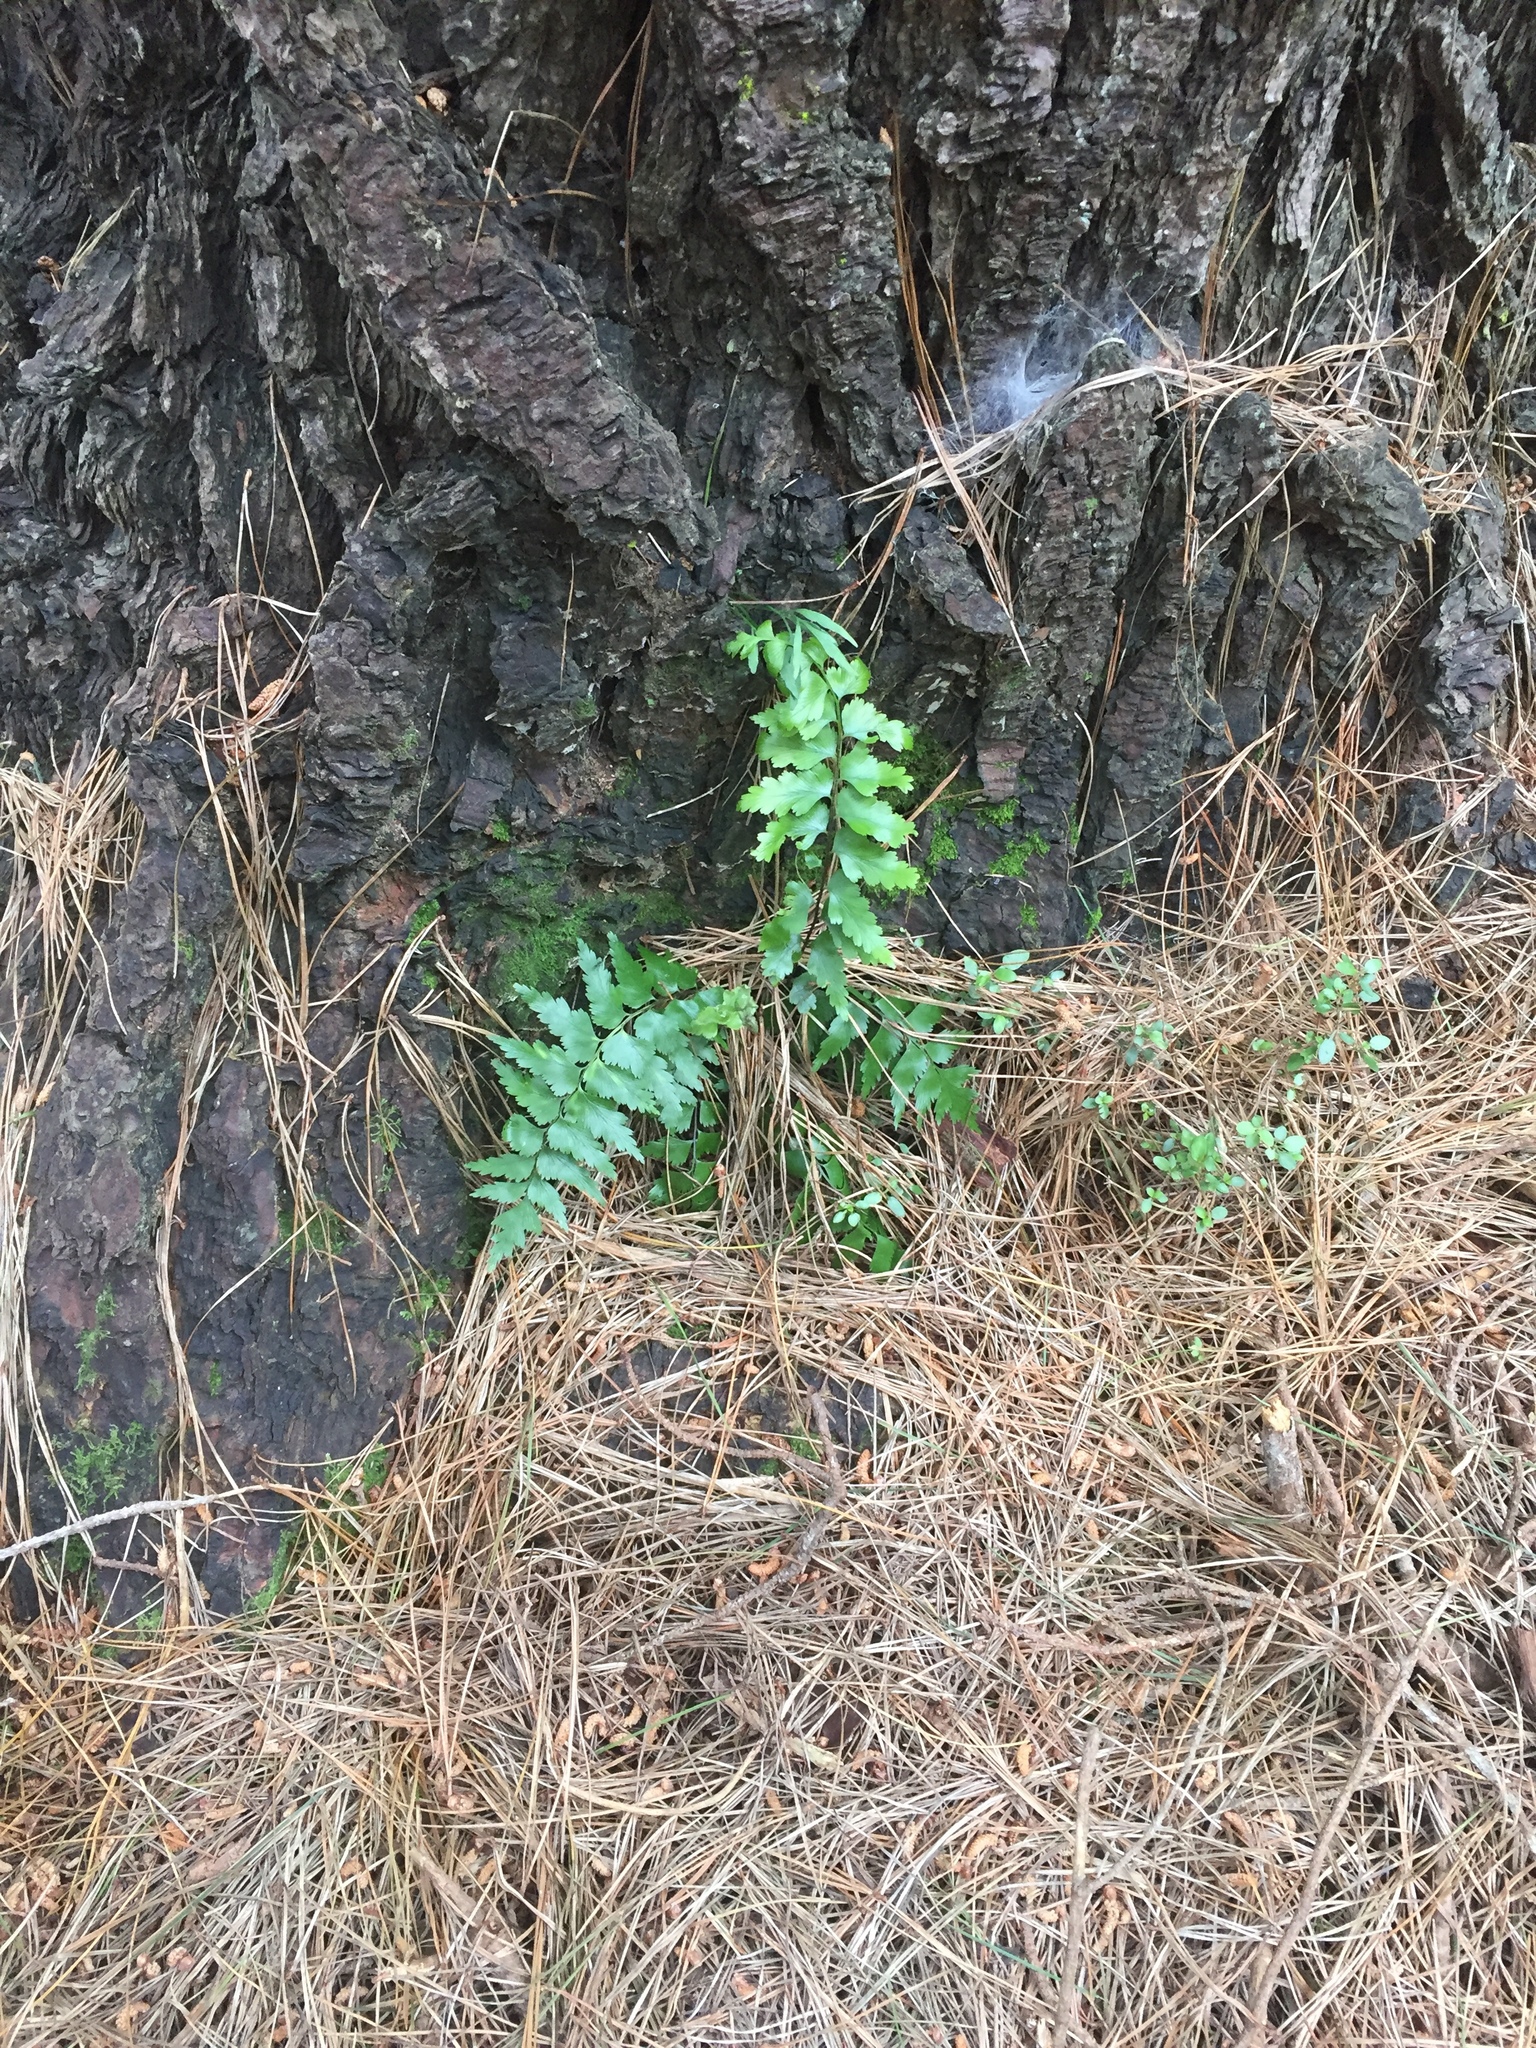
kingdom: Plantae
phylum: Tracheophyta
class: Polypodiopsida
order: Polypodiales
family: Aspleniaceae
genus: Asplenium
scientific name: Asplenium polyodon
